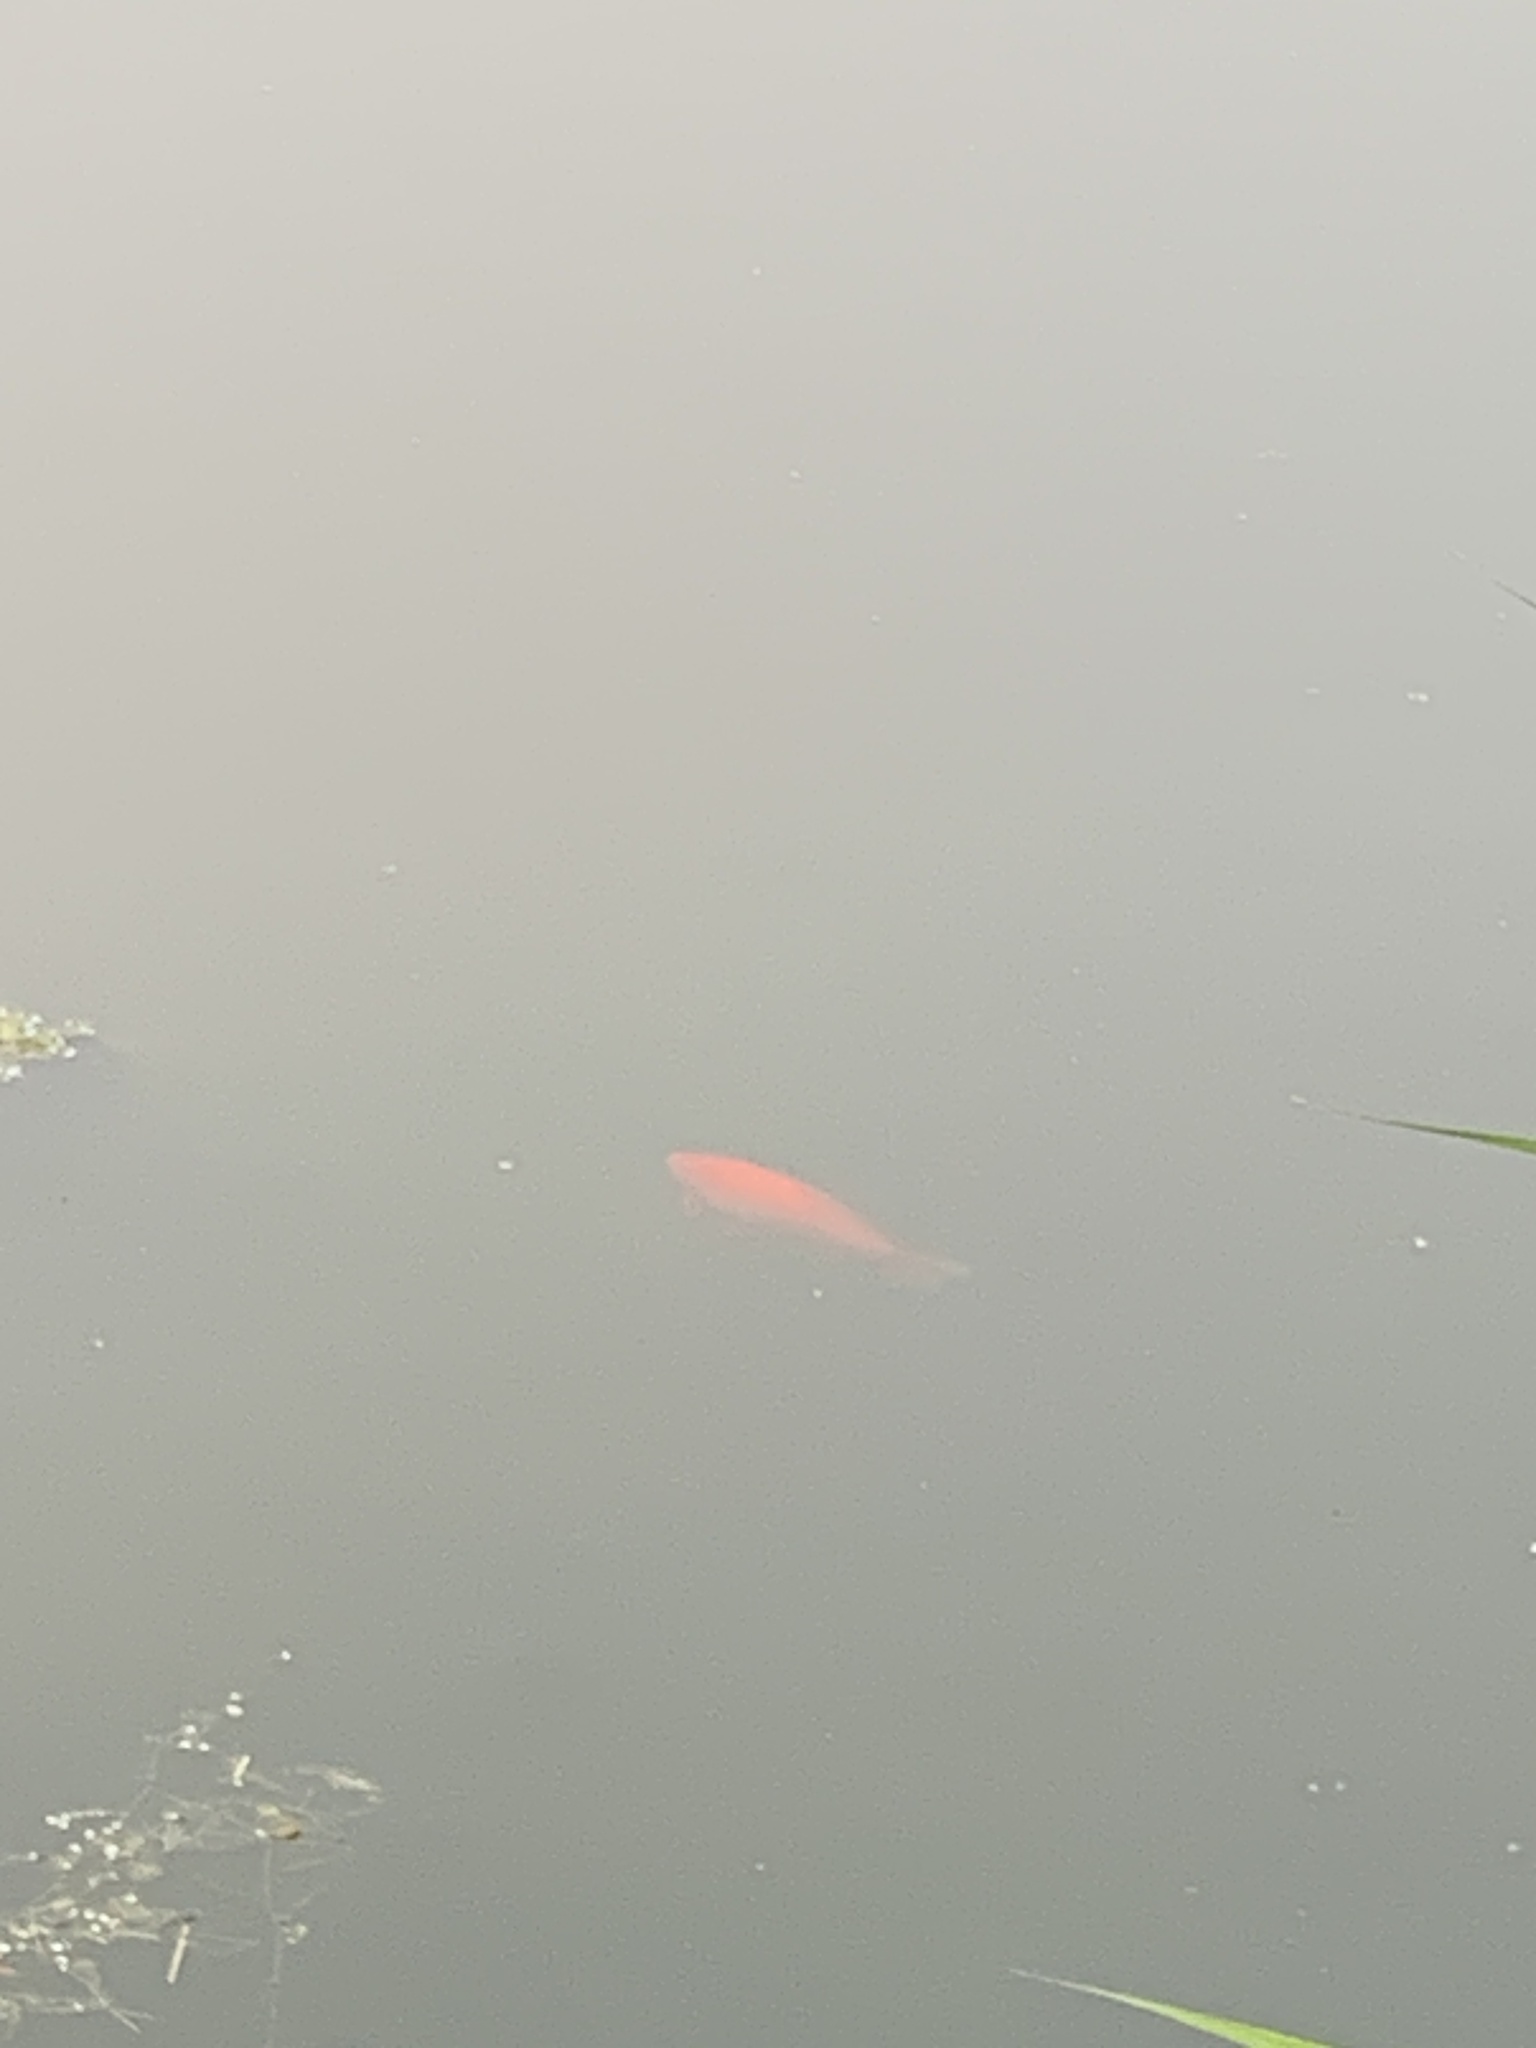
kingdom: Animalia
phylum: Chordata
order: Cypriniformes
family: Cyprinidae
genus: Carassius
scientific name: Carassius auratus
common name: Goldfish
